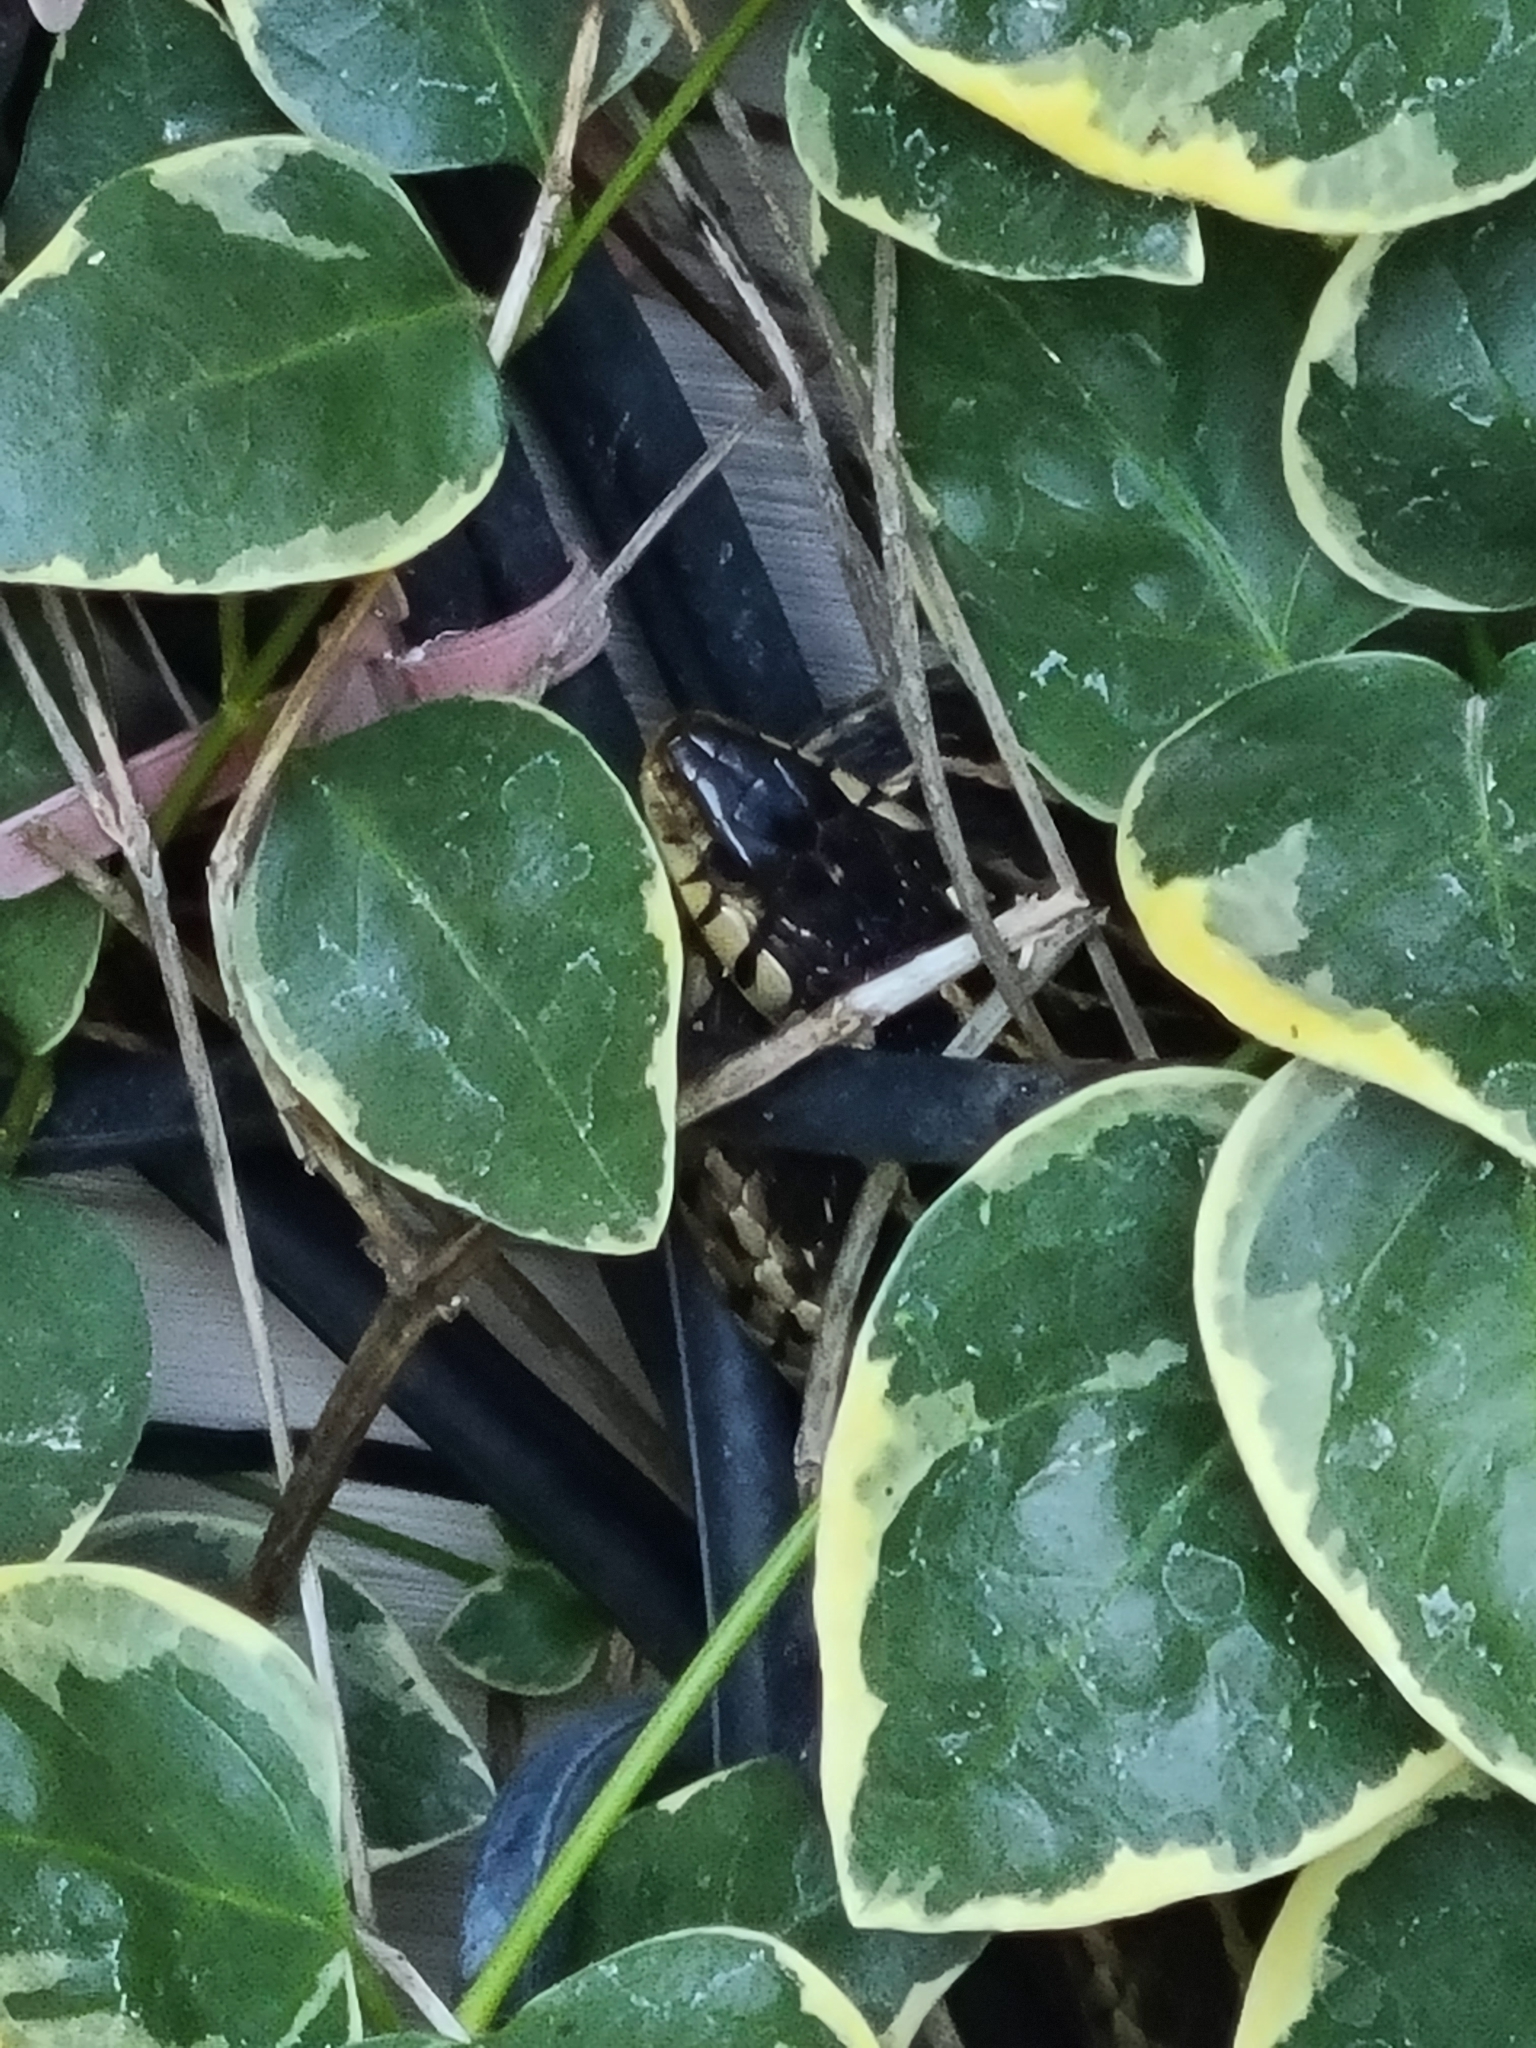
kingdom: Animalia
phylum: Chordata
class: Squamata
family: Colubridae
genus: Thamnophis
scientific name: Thamnophis sirtalis
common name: Common garter snake
